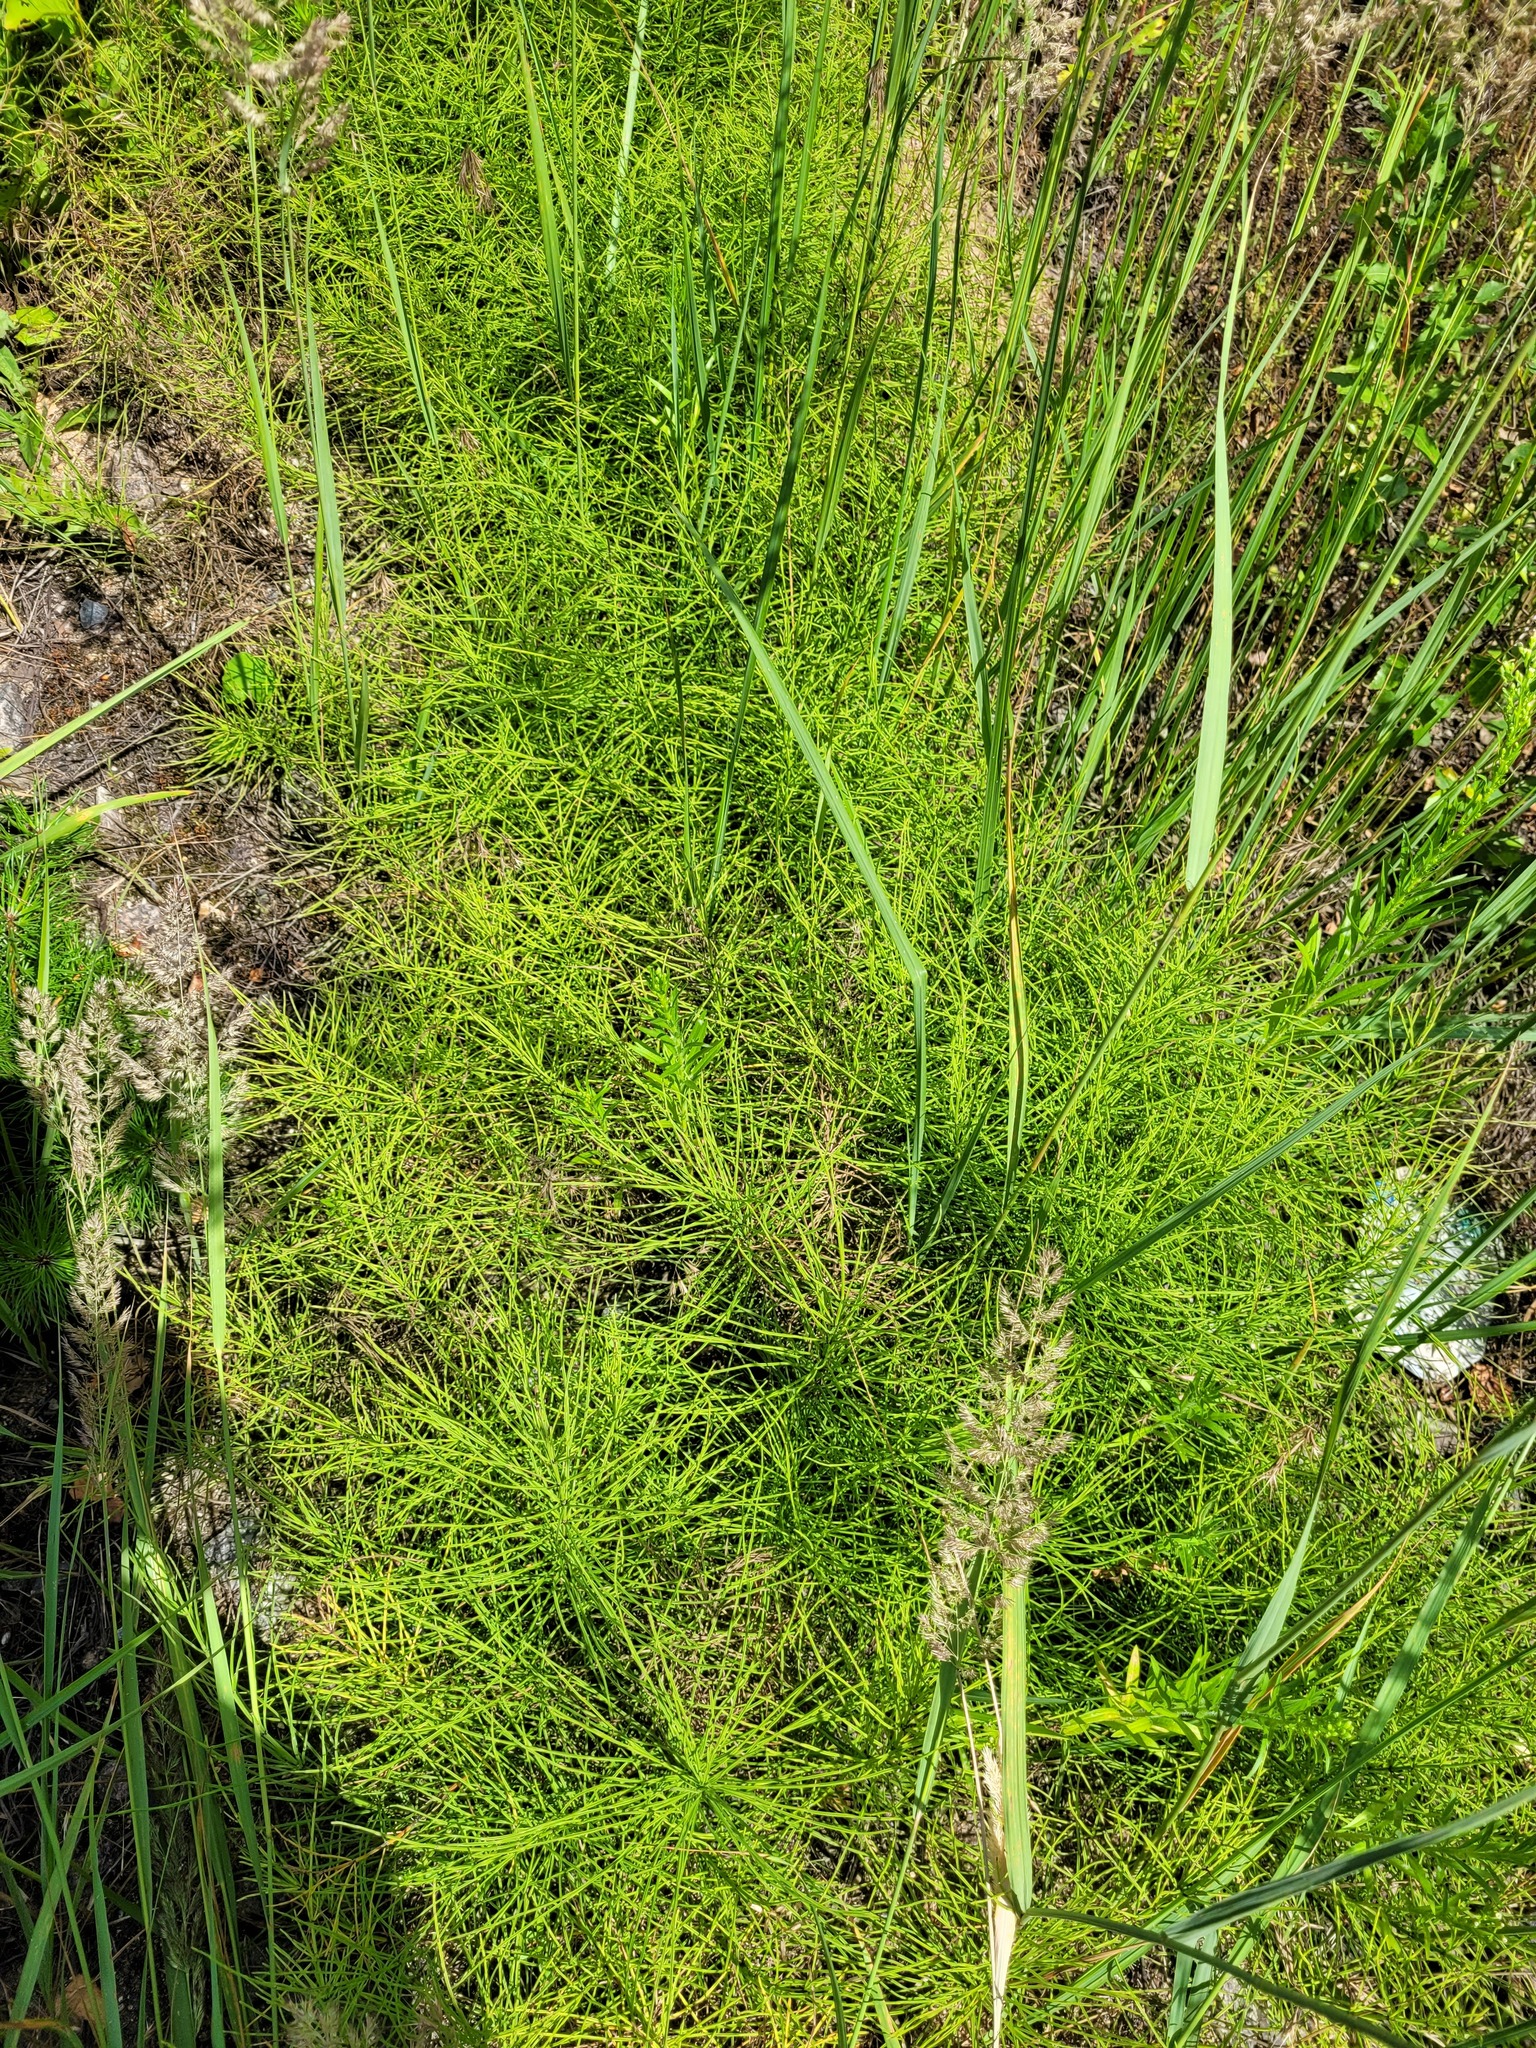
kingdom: Plantae
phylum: Tracheophyta
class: Polypodiopsida
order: Equisetales
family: Equisetaceae
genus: Equisetum
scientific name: Equisetum arvense
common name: Field horsetail
